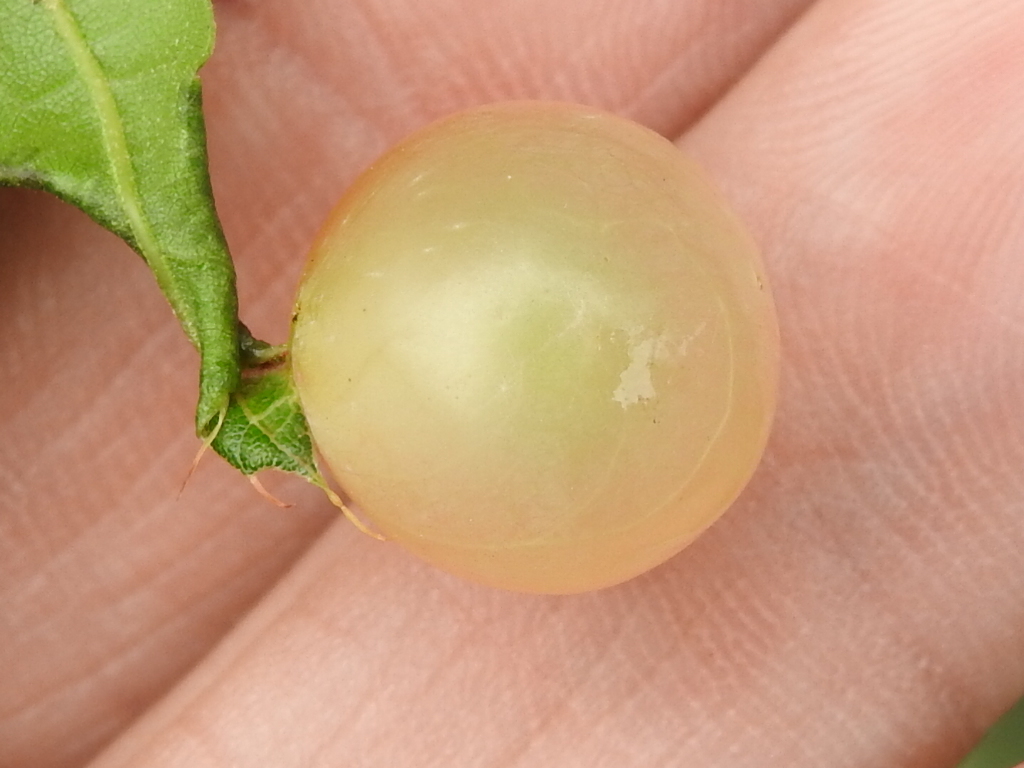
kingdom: Animalia
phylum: Arthropoda
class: Insecta
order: Hymenoptera
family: Cynipidae
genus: Amphibolips
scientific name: Amphibolips
